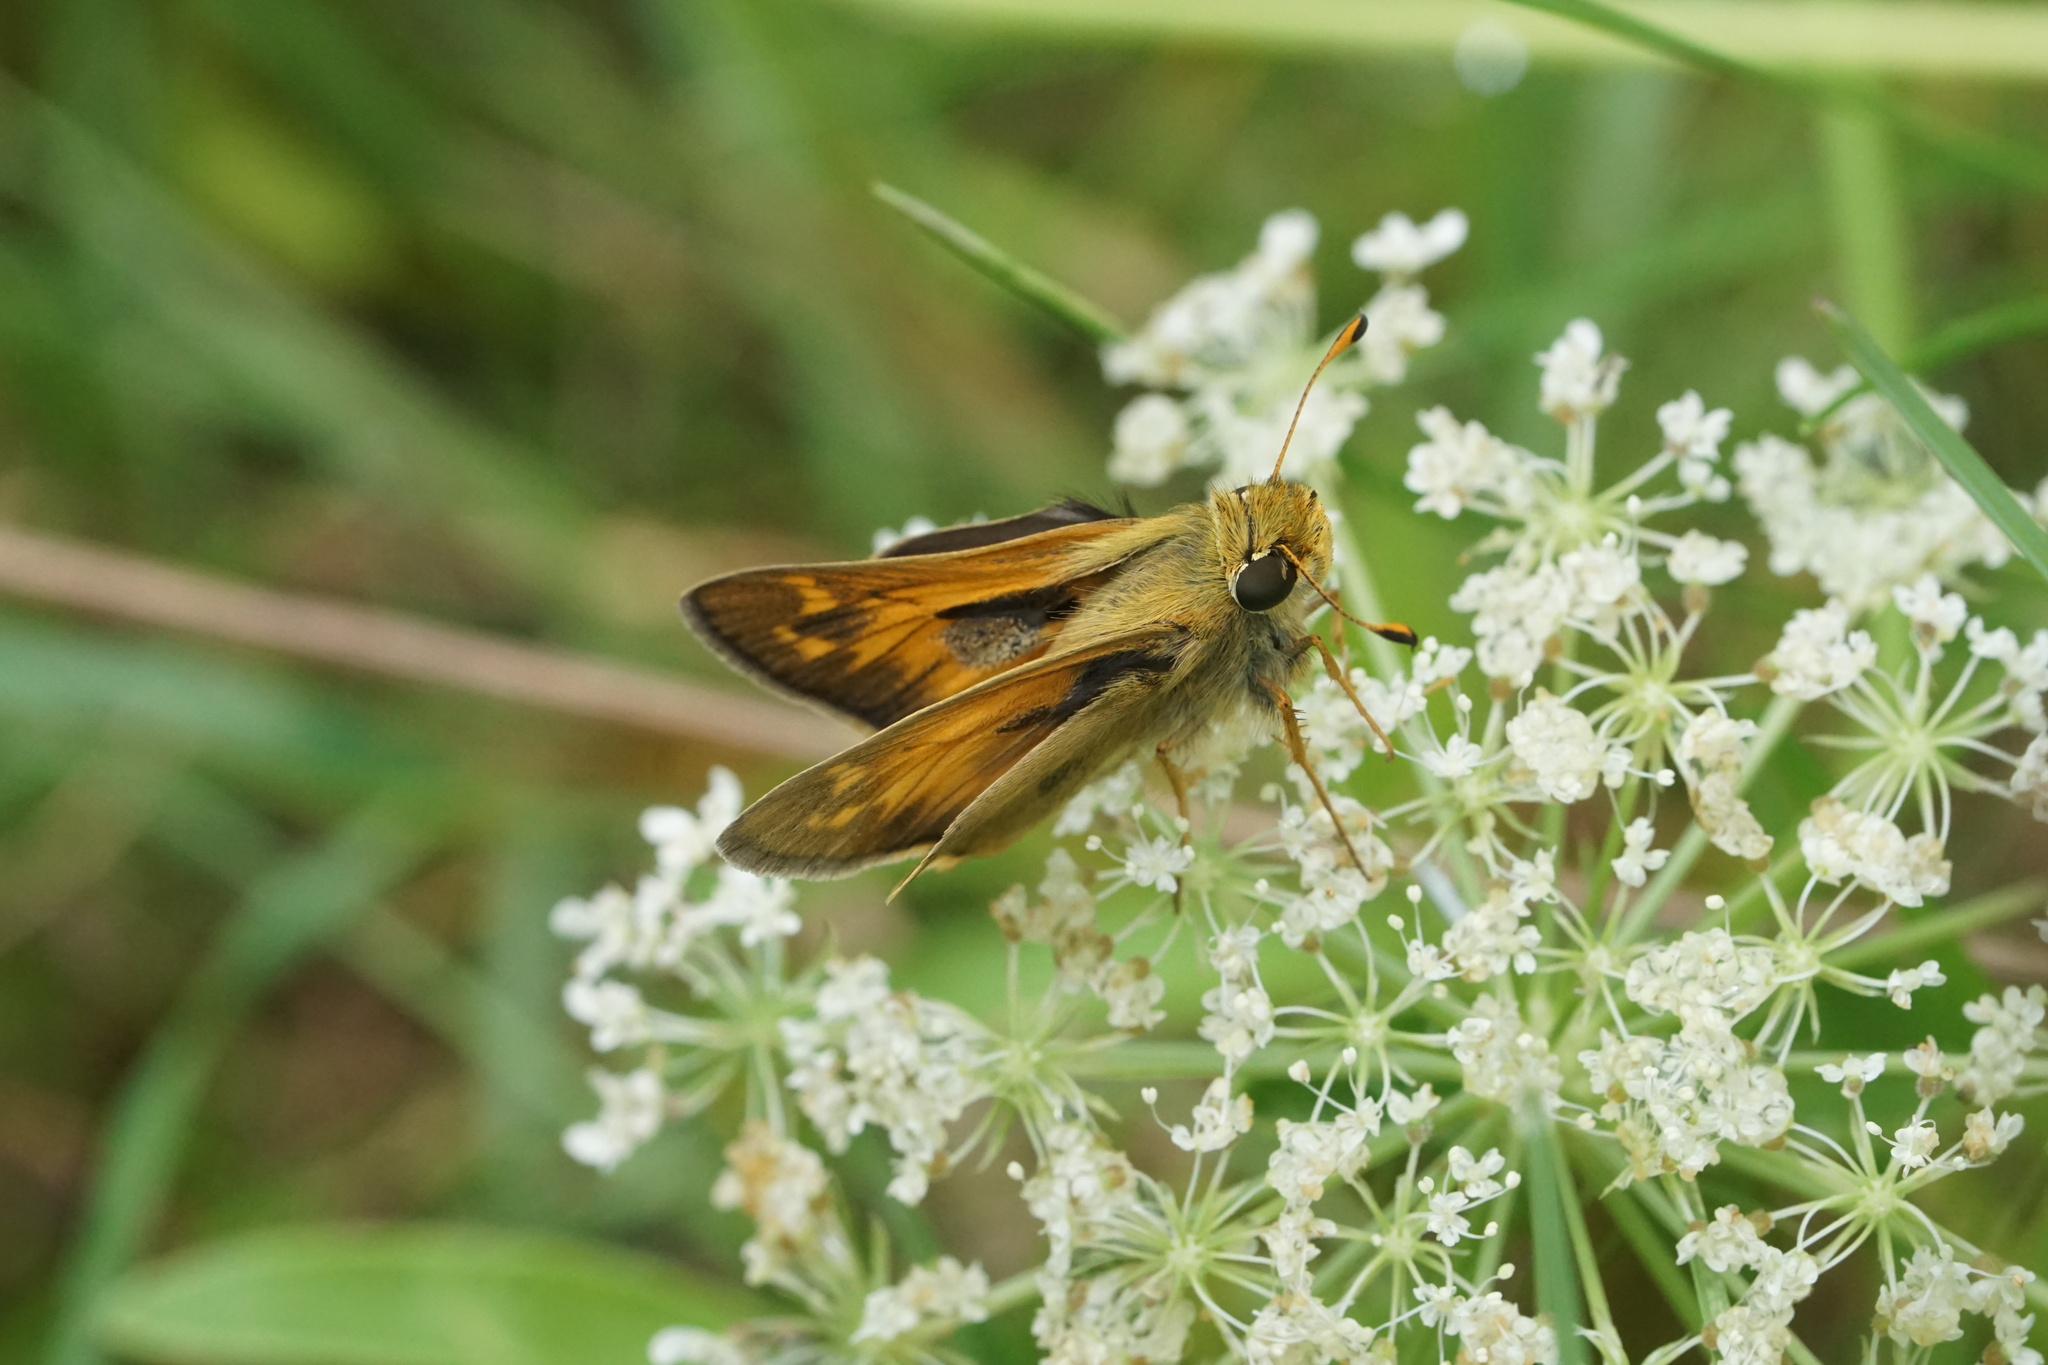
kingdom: Animalia
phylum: Arthropoda
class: Insecta
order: Lepidoptera
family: Hesperiidae
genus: Atalopedes
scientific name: Atalopedes
